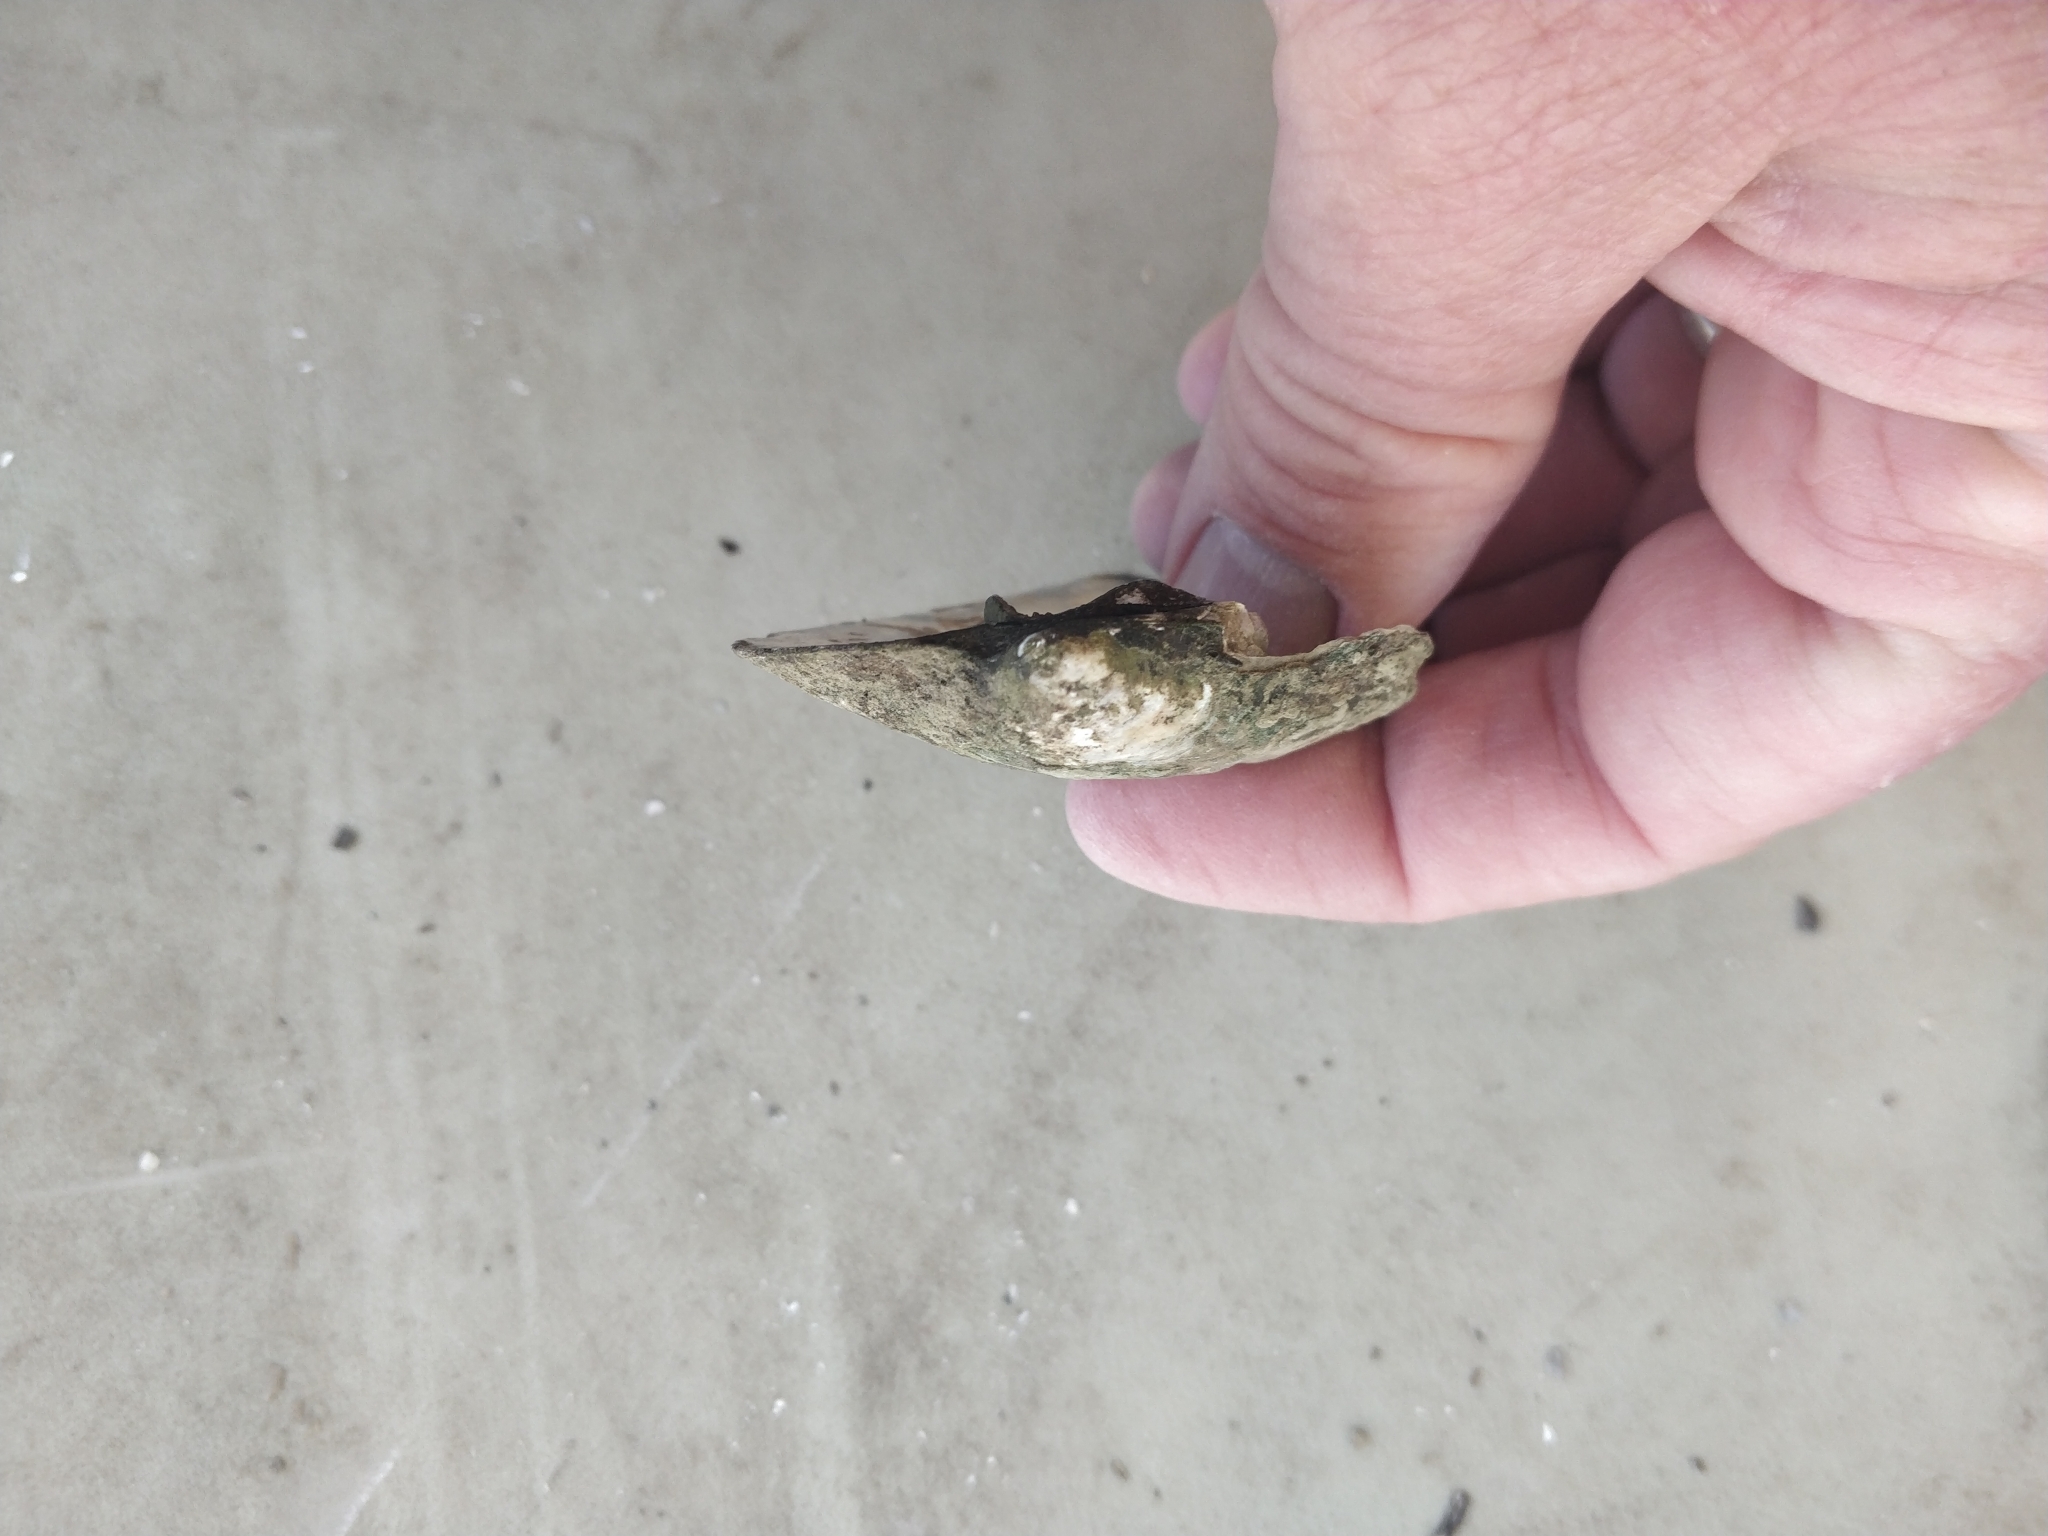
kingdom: Animalia
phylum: Mollusca
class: Bivalvia
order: Unionida
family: Unionidae
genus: Amblema
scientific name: Amblema plicata
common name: Threeridge
